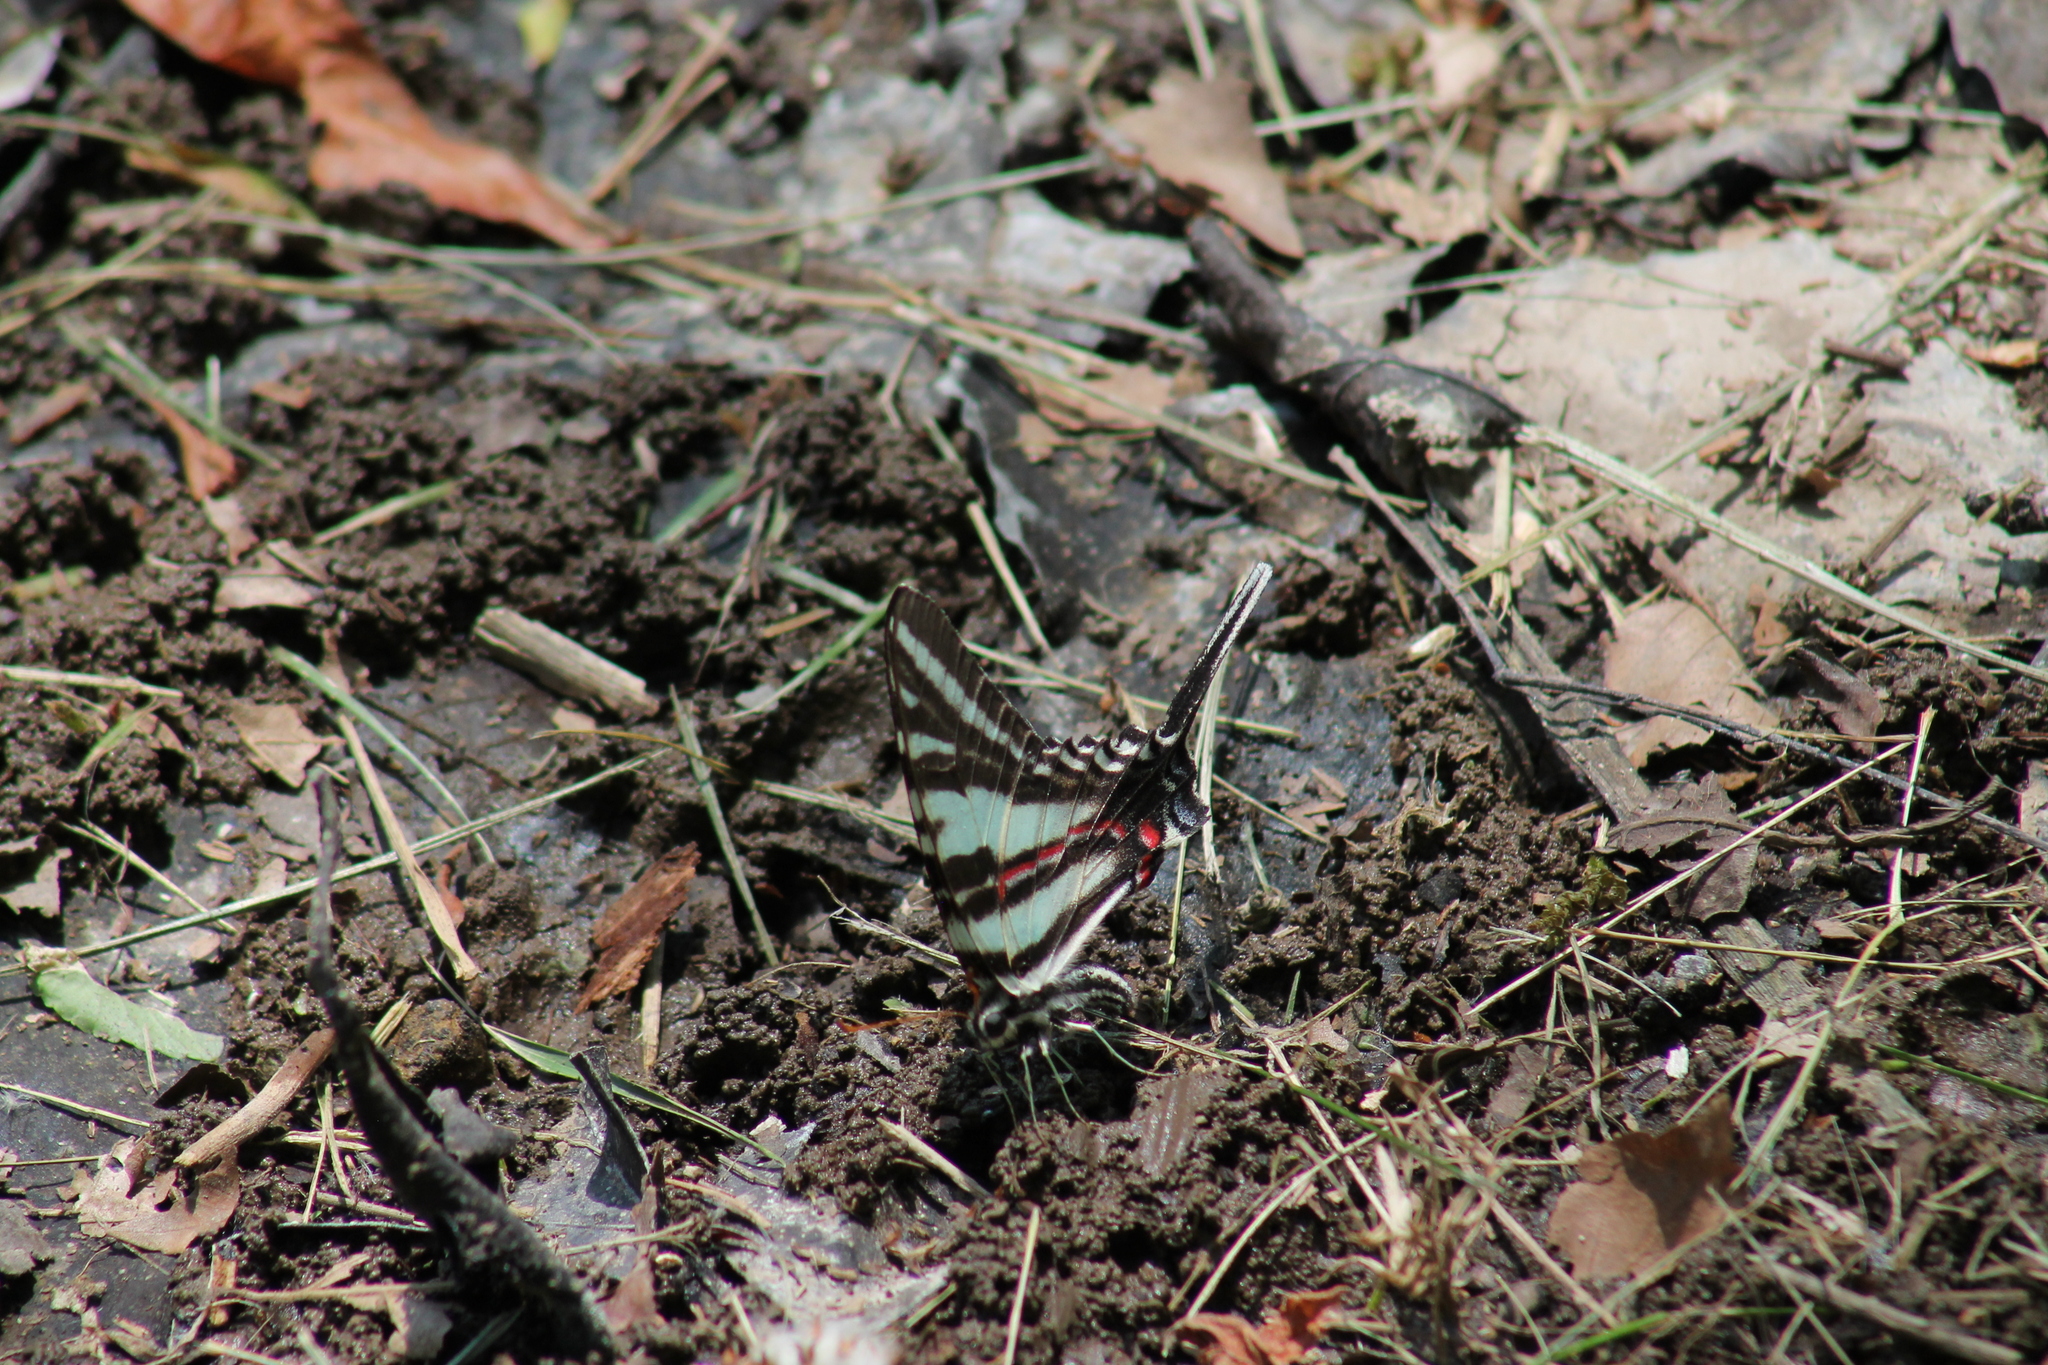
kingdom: Animalia
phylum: Arthropoda
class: Insecta
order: Lepidoptera
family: Papilionidae
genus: Protographium
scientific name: Protographium marcellus
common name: Zebra swallowtail
